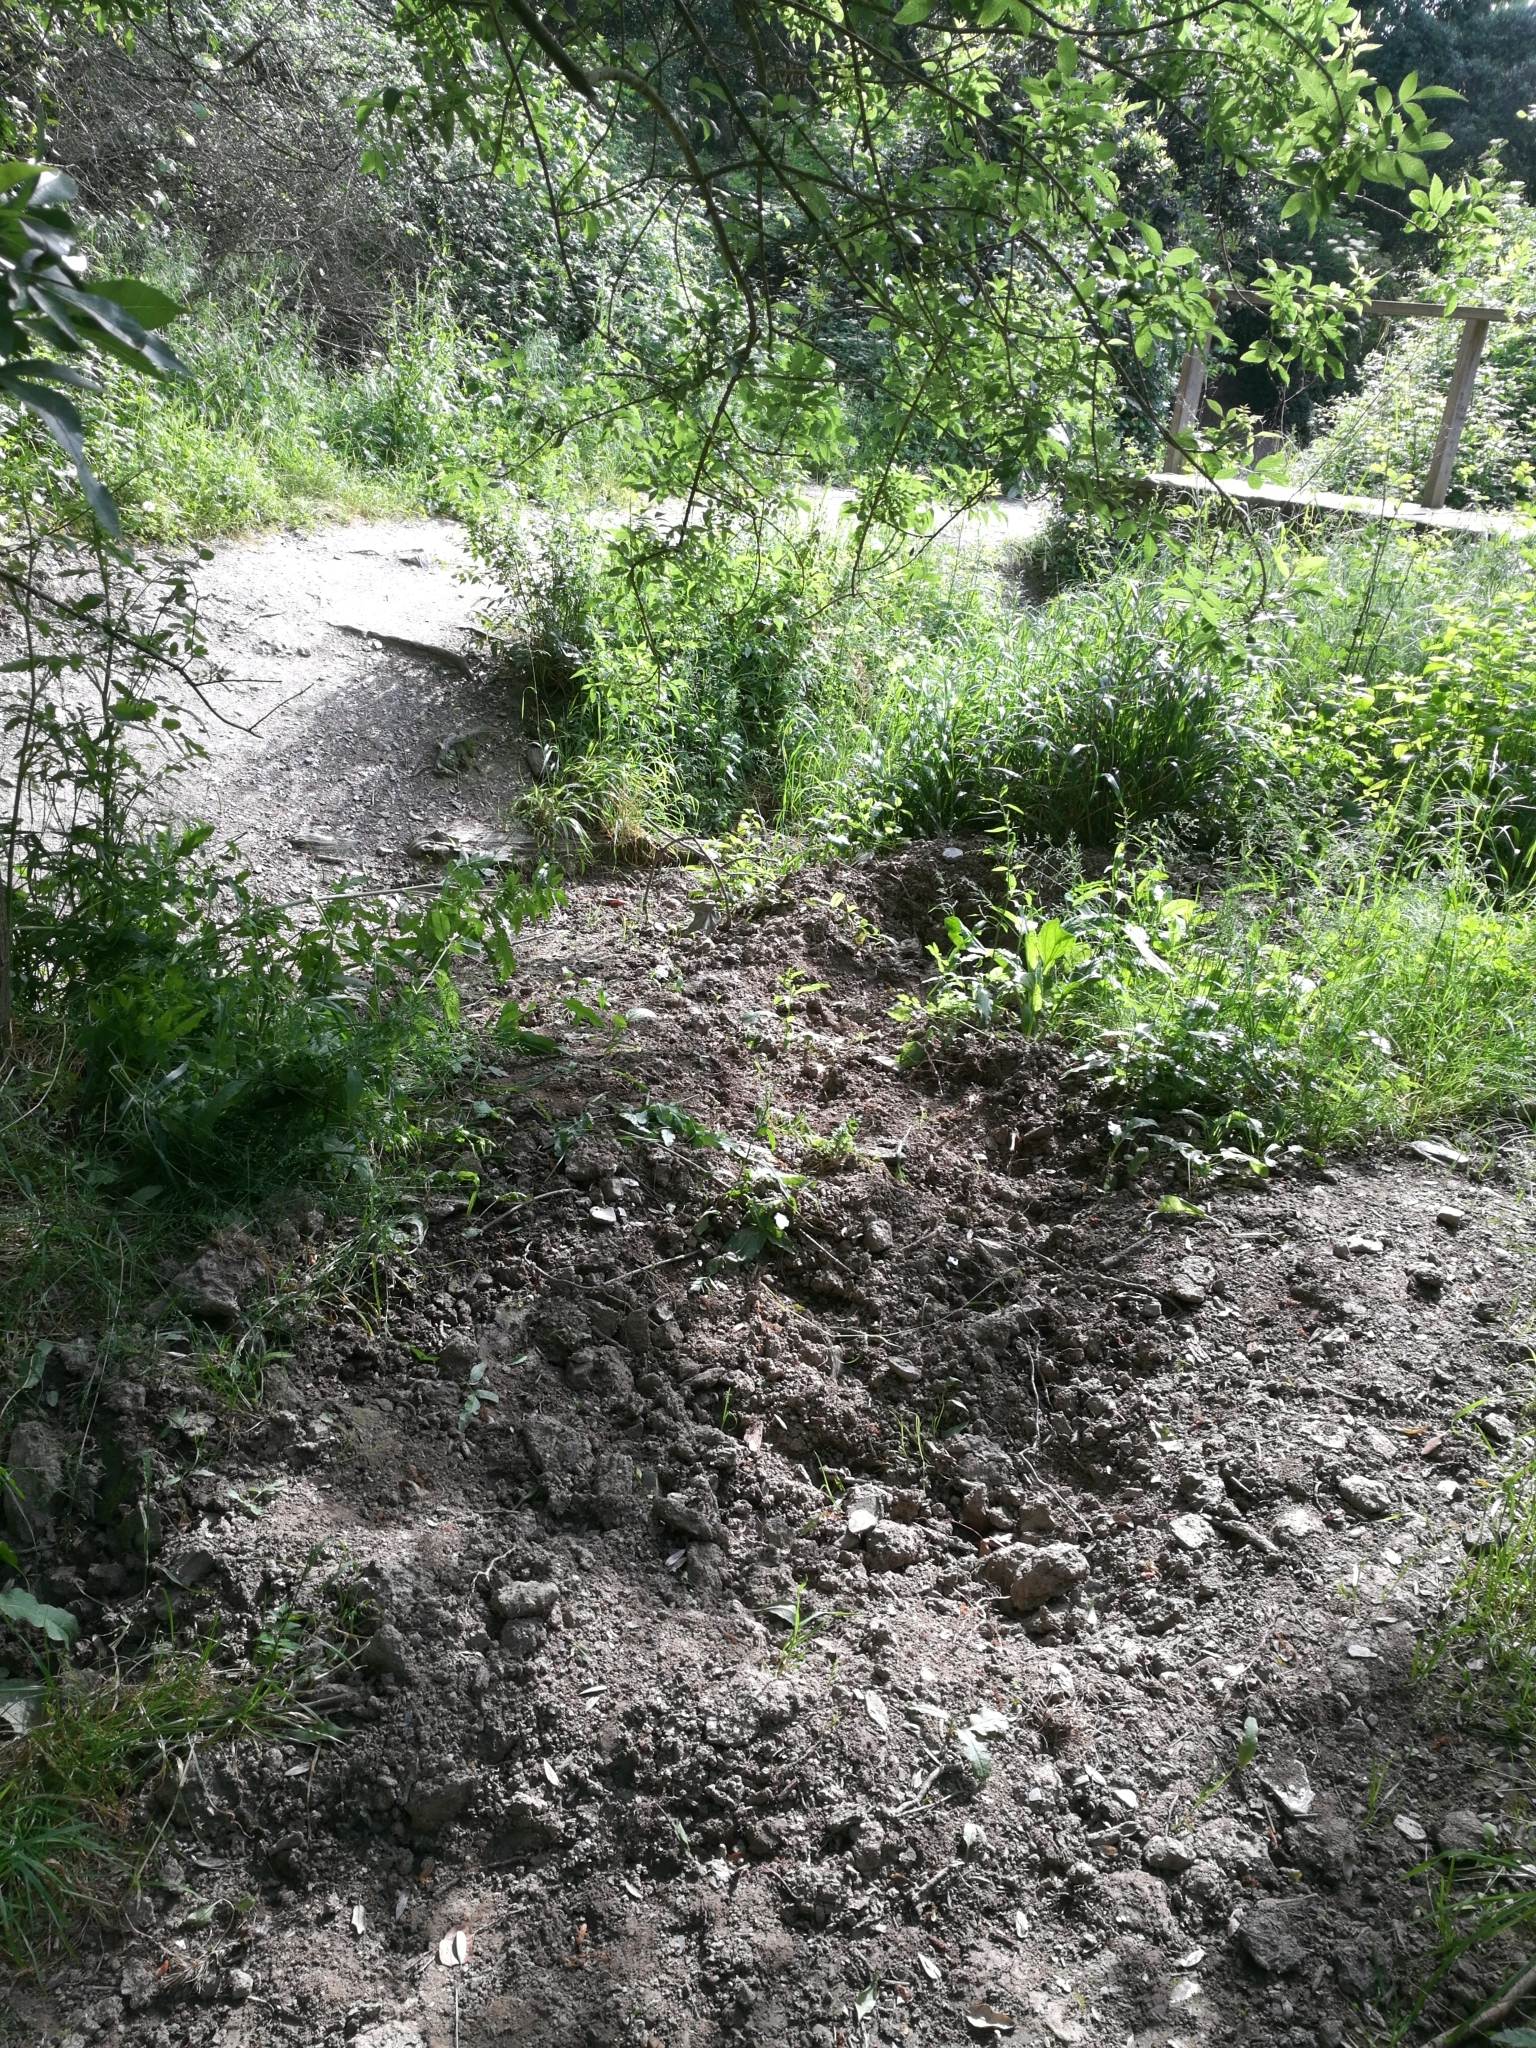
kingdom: Animalia
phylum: Chordata
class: Mammalia
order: Artiodactyla
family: Suidae
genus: Sus
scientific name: Sus scrofa
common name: Wild boar
